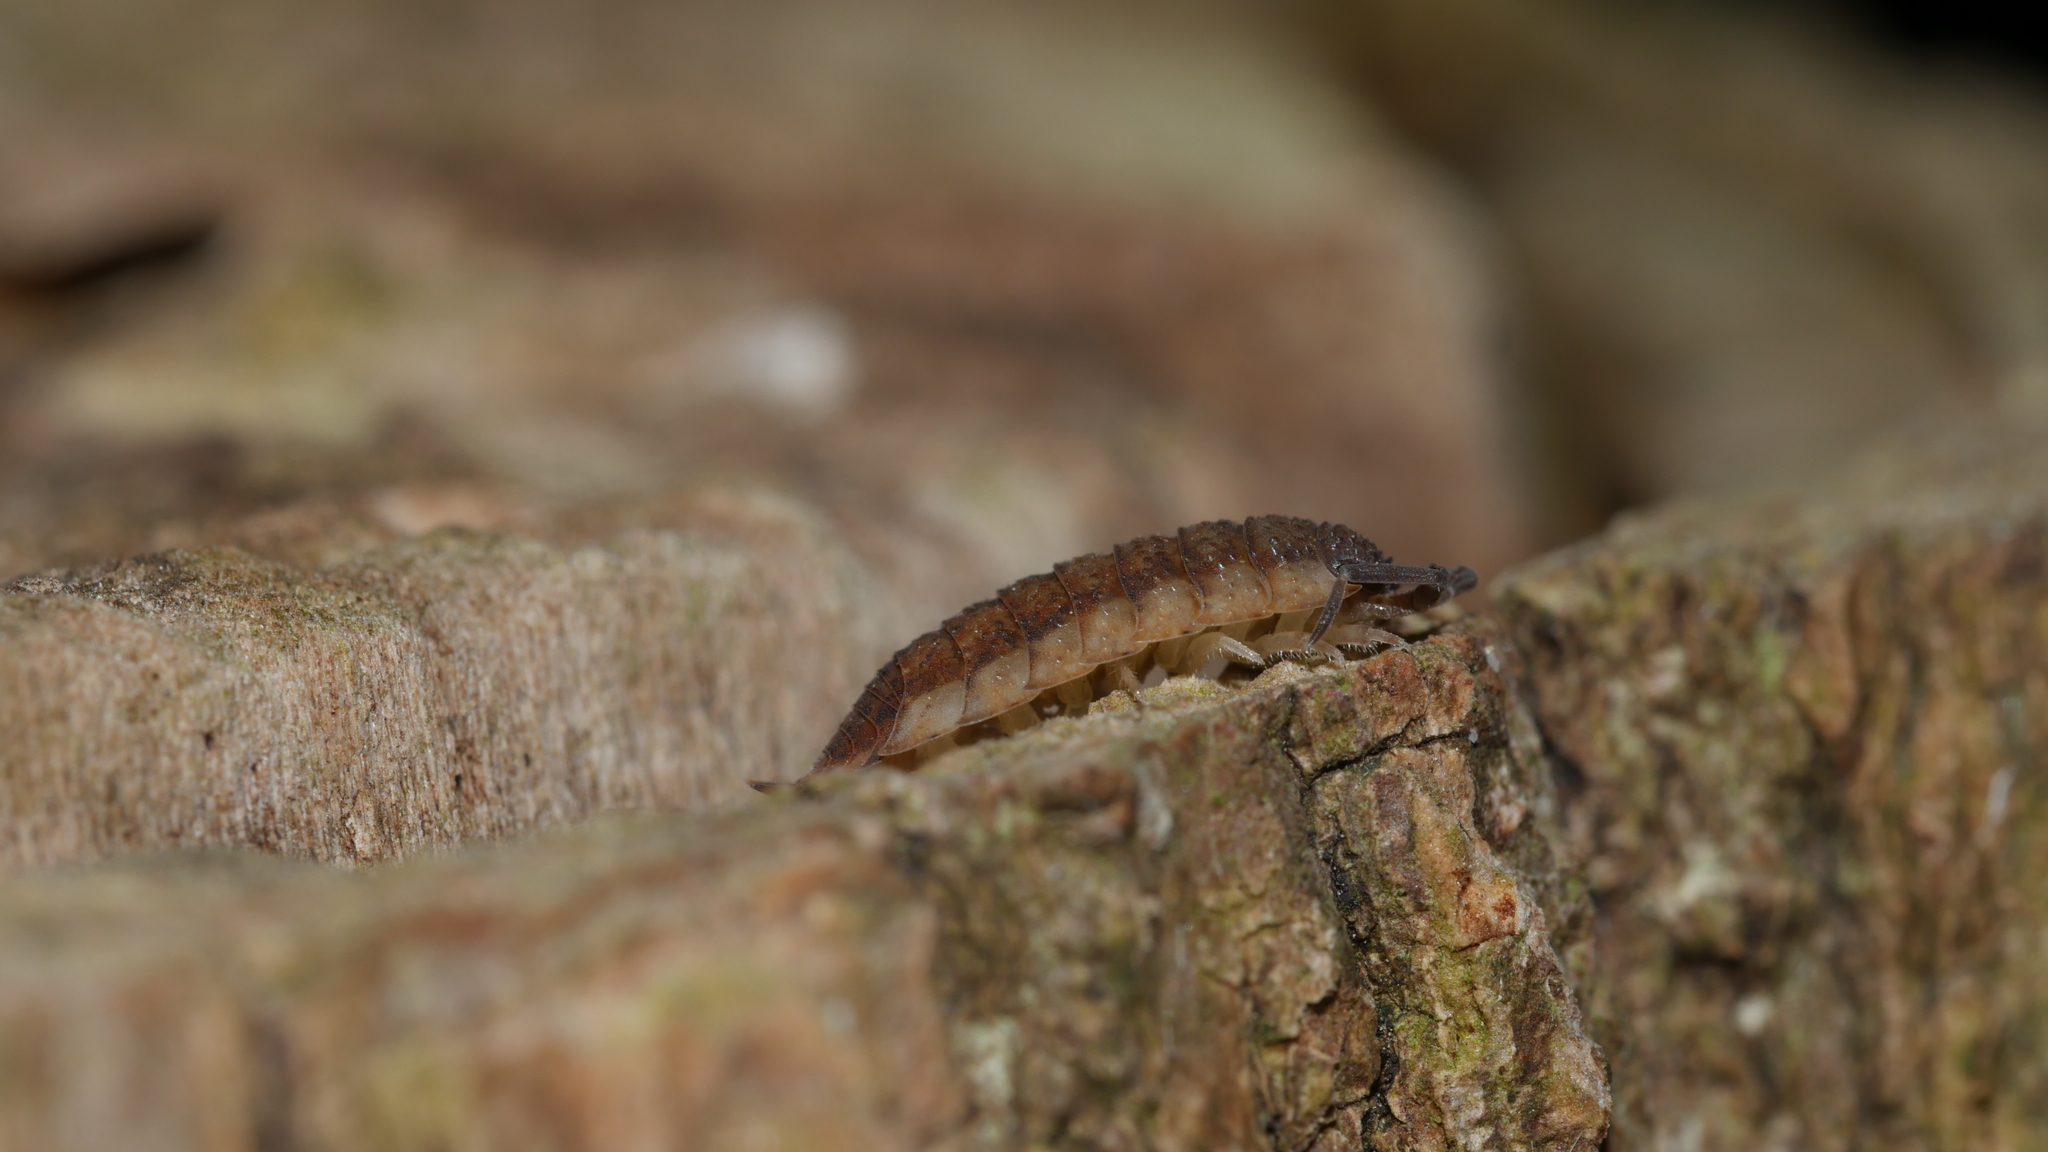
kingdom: Animalia
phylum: Arthropoda
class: Malacostraca
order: Isopoda
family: Porcellionidae
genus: Porcellio
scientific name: Porcellio scaber
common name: Common rough woodlouse
